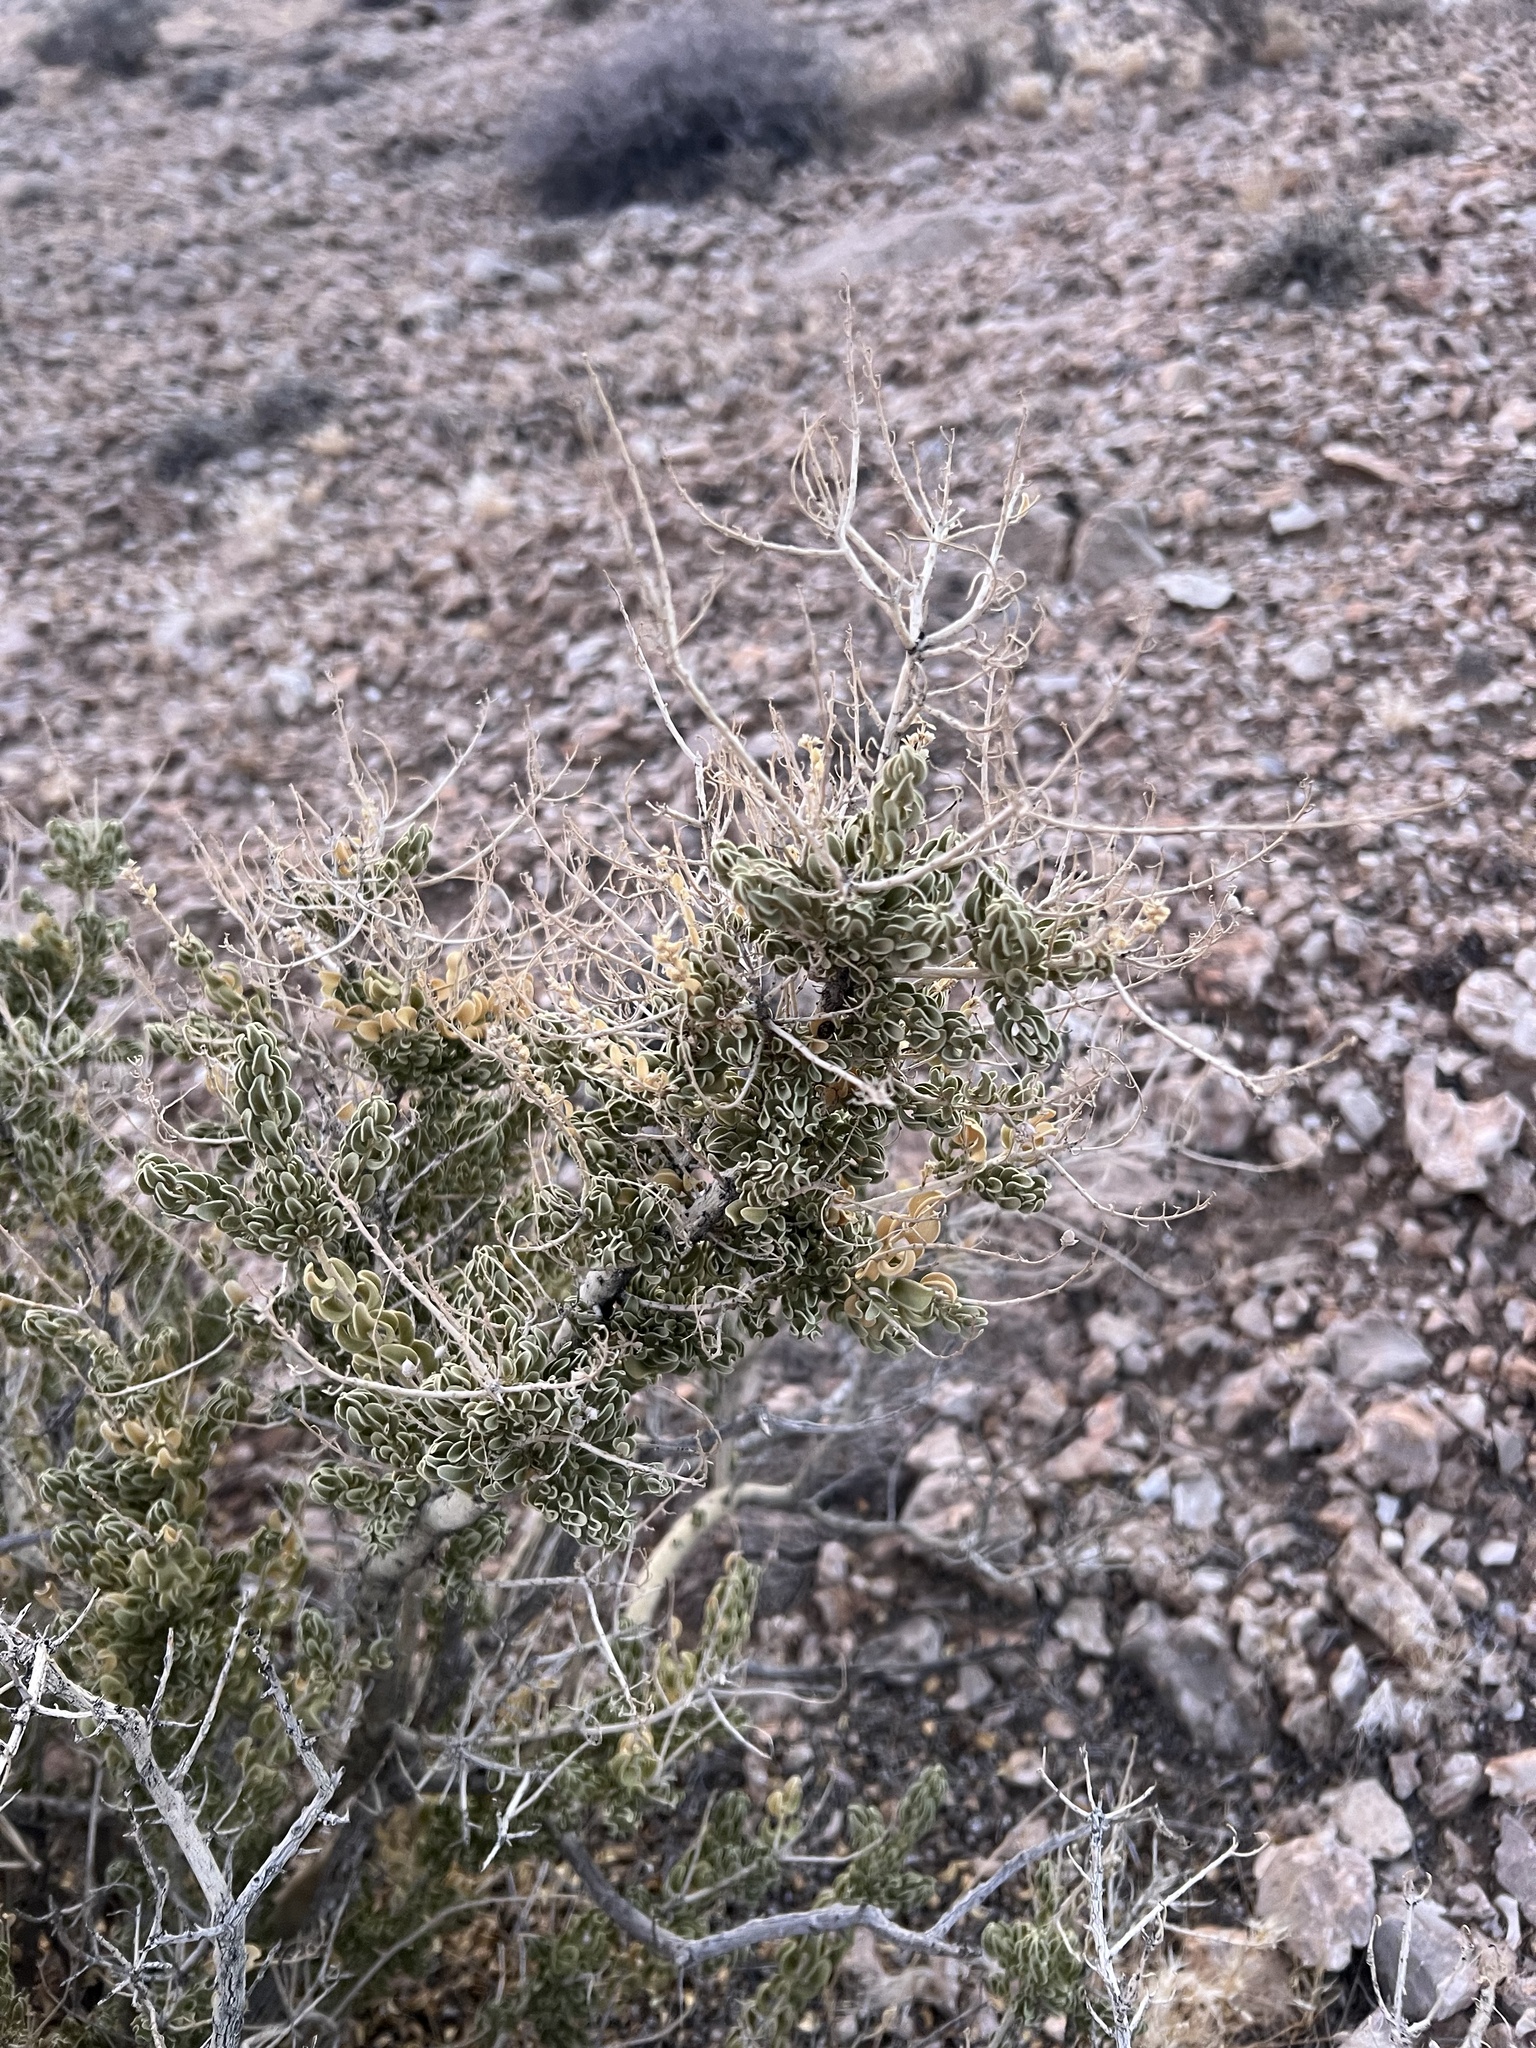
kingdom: Plantae
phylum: Tracheophyta
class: Magnoliopsida
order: Celastrales
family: Celastraceae
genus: Mortonia
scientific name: Mortonia utahensis
